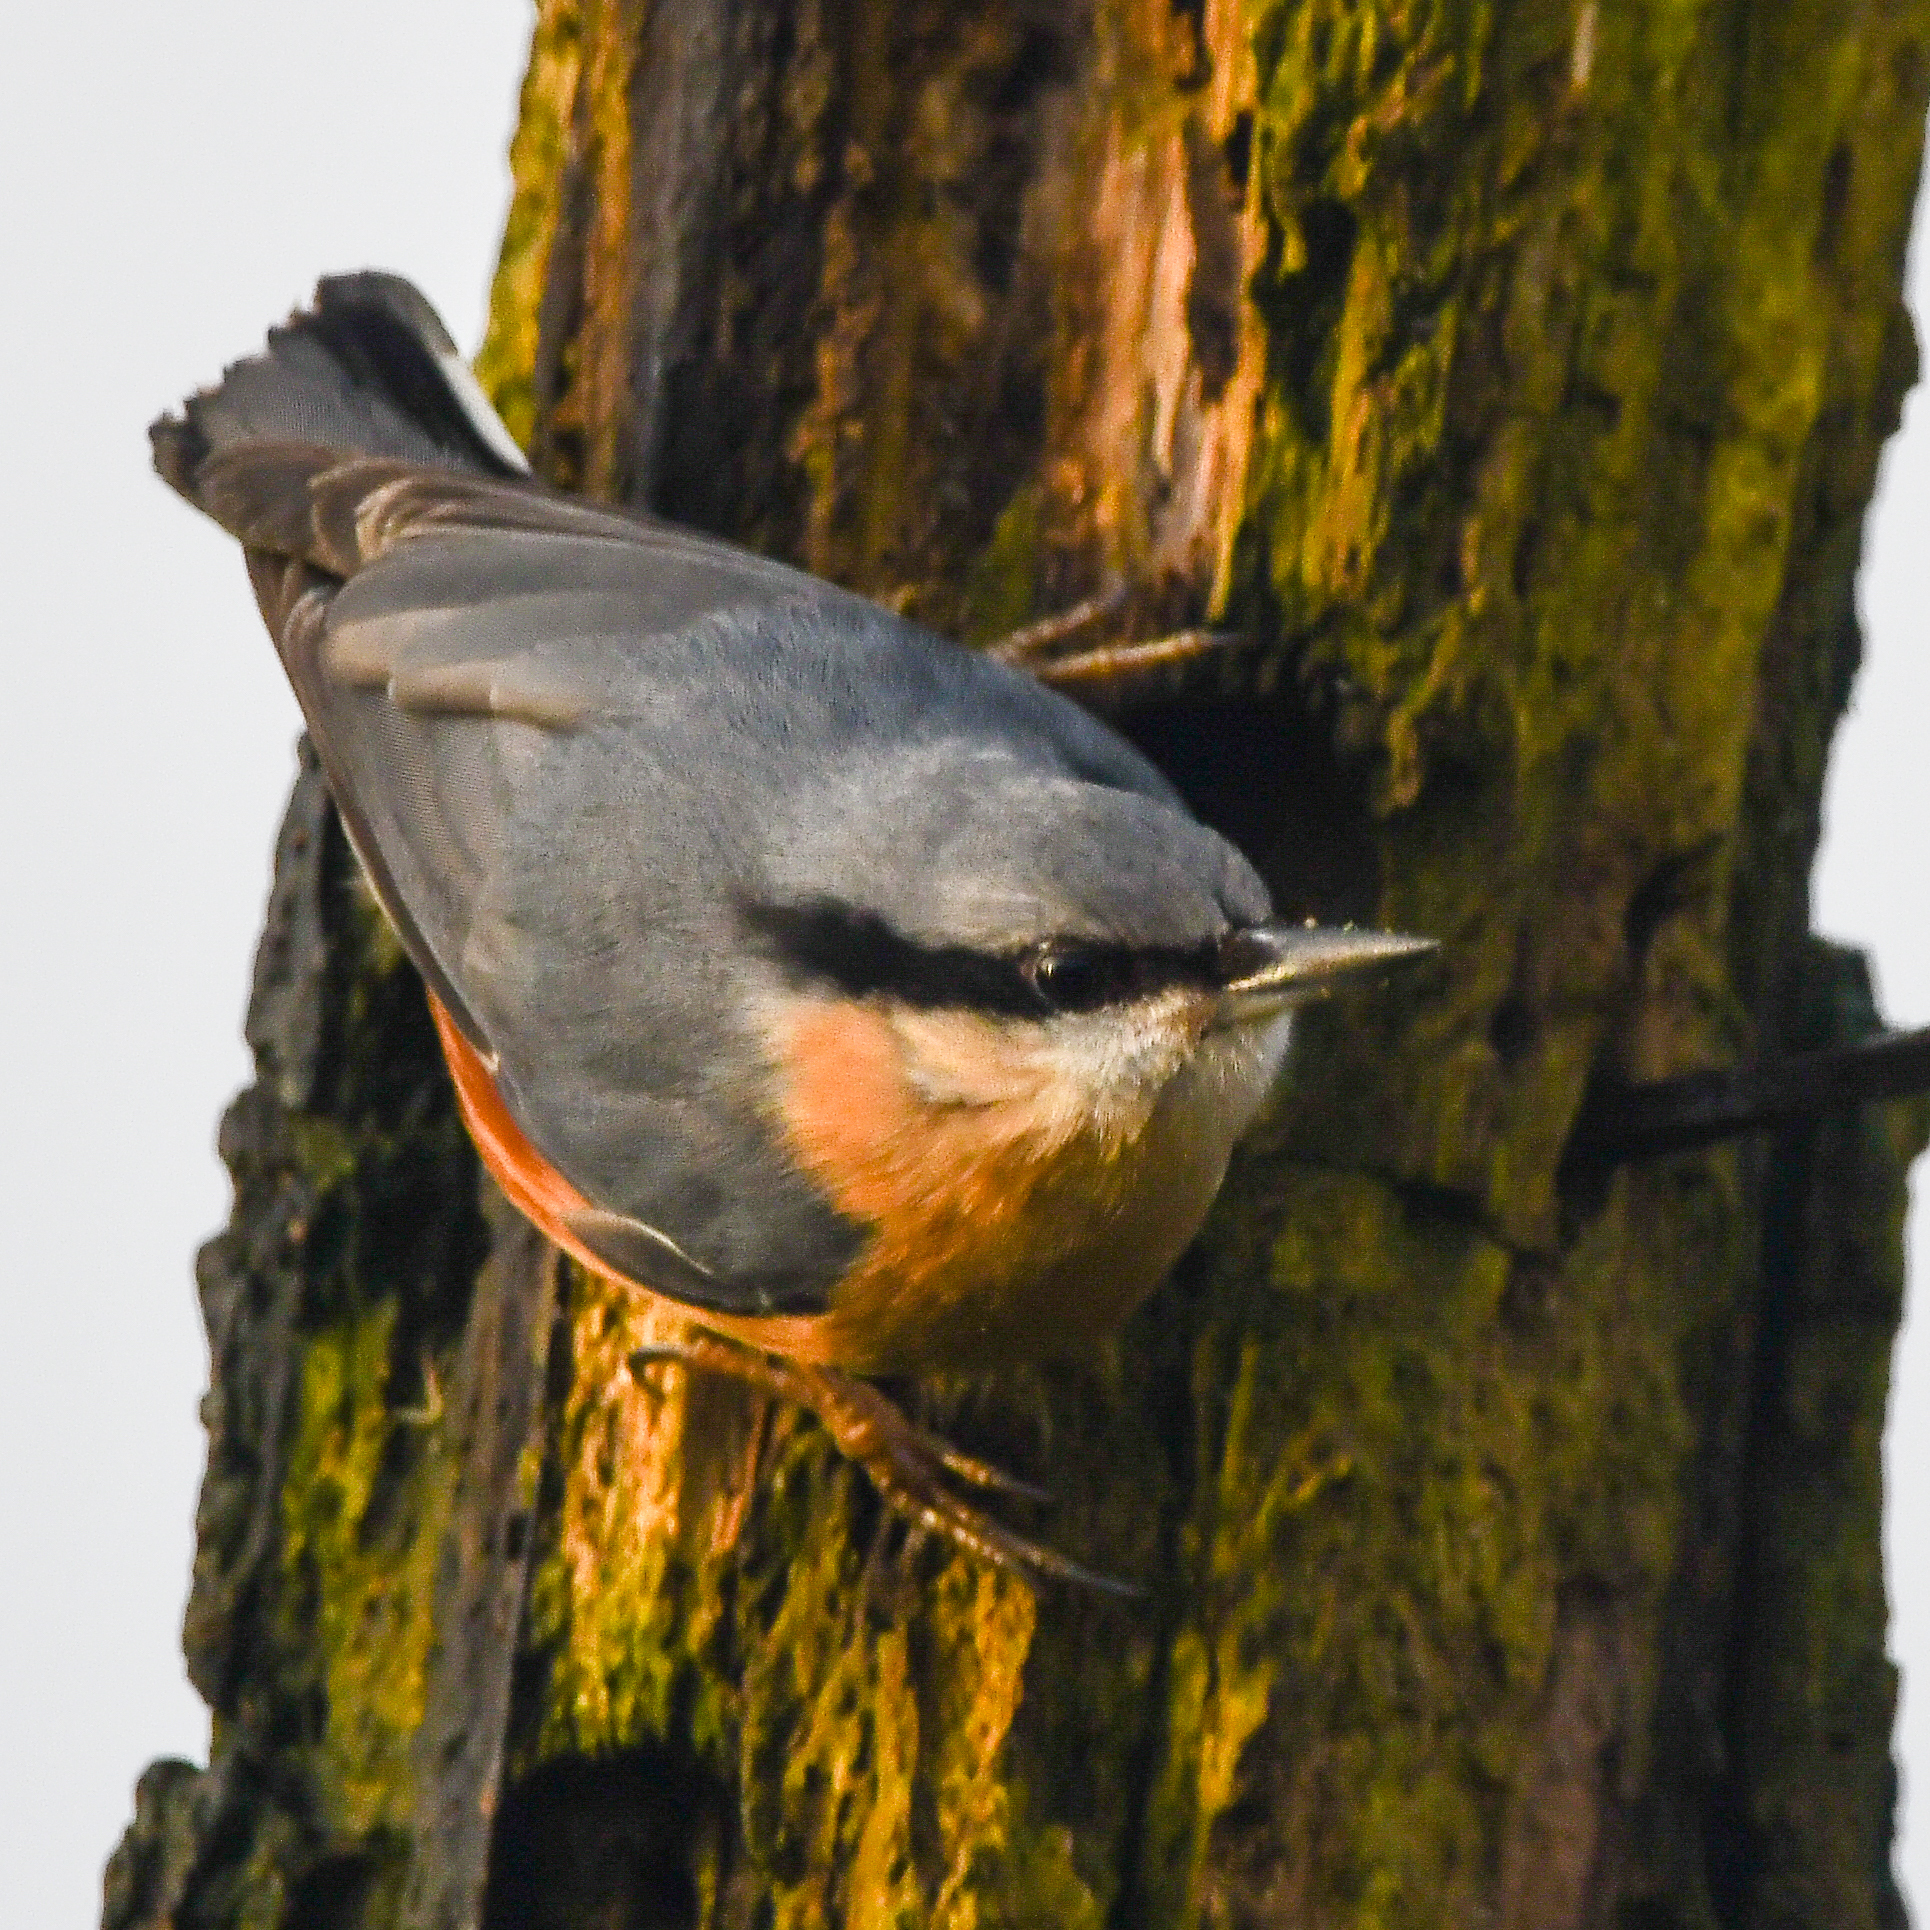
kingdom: Animalia
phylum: Chordata
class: Aves
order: Passeriformes
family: Sittidae
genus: Sitta
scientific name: Sitta europaea
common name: Eurasian nuthatch
